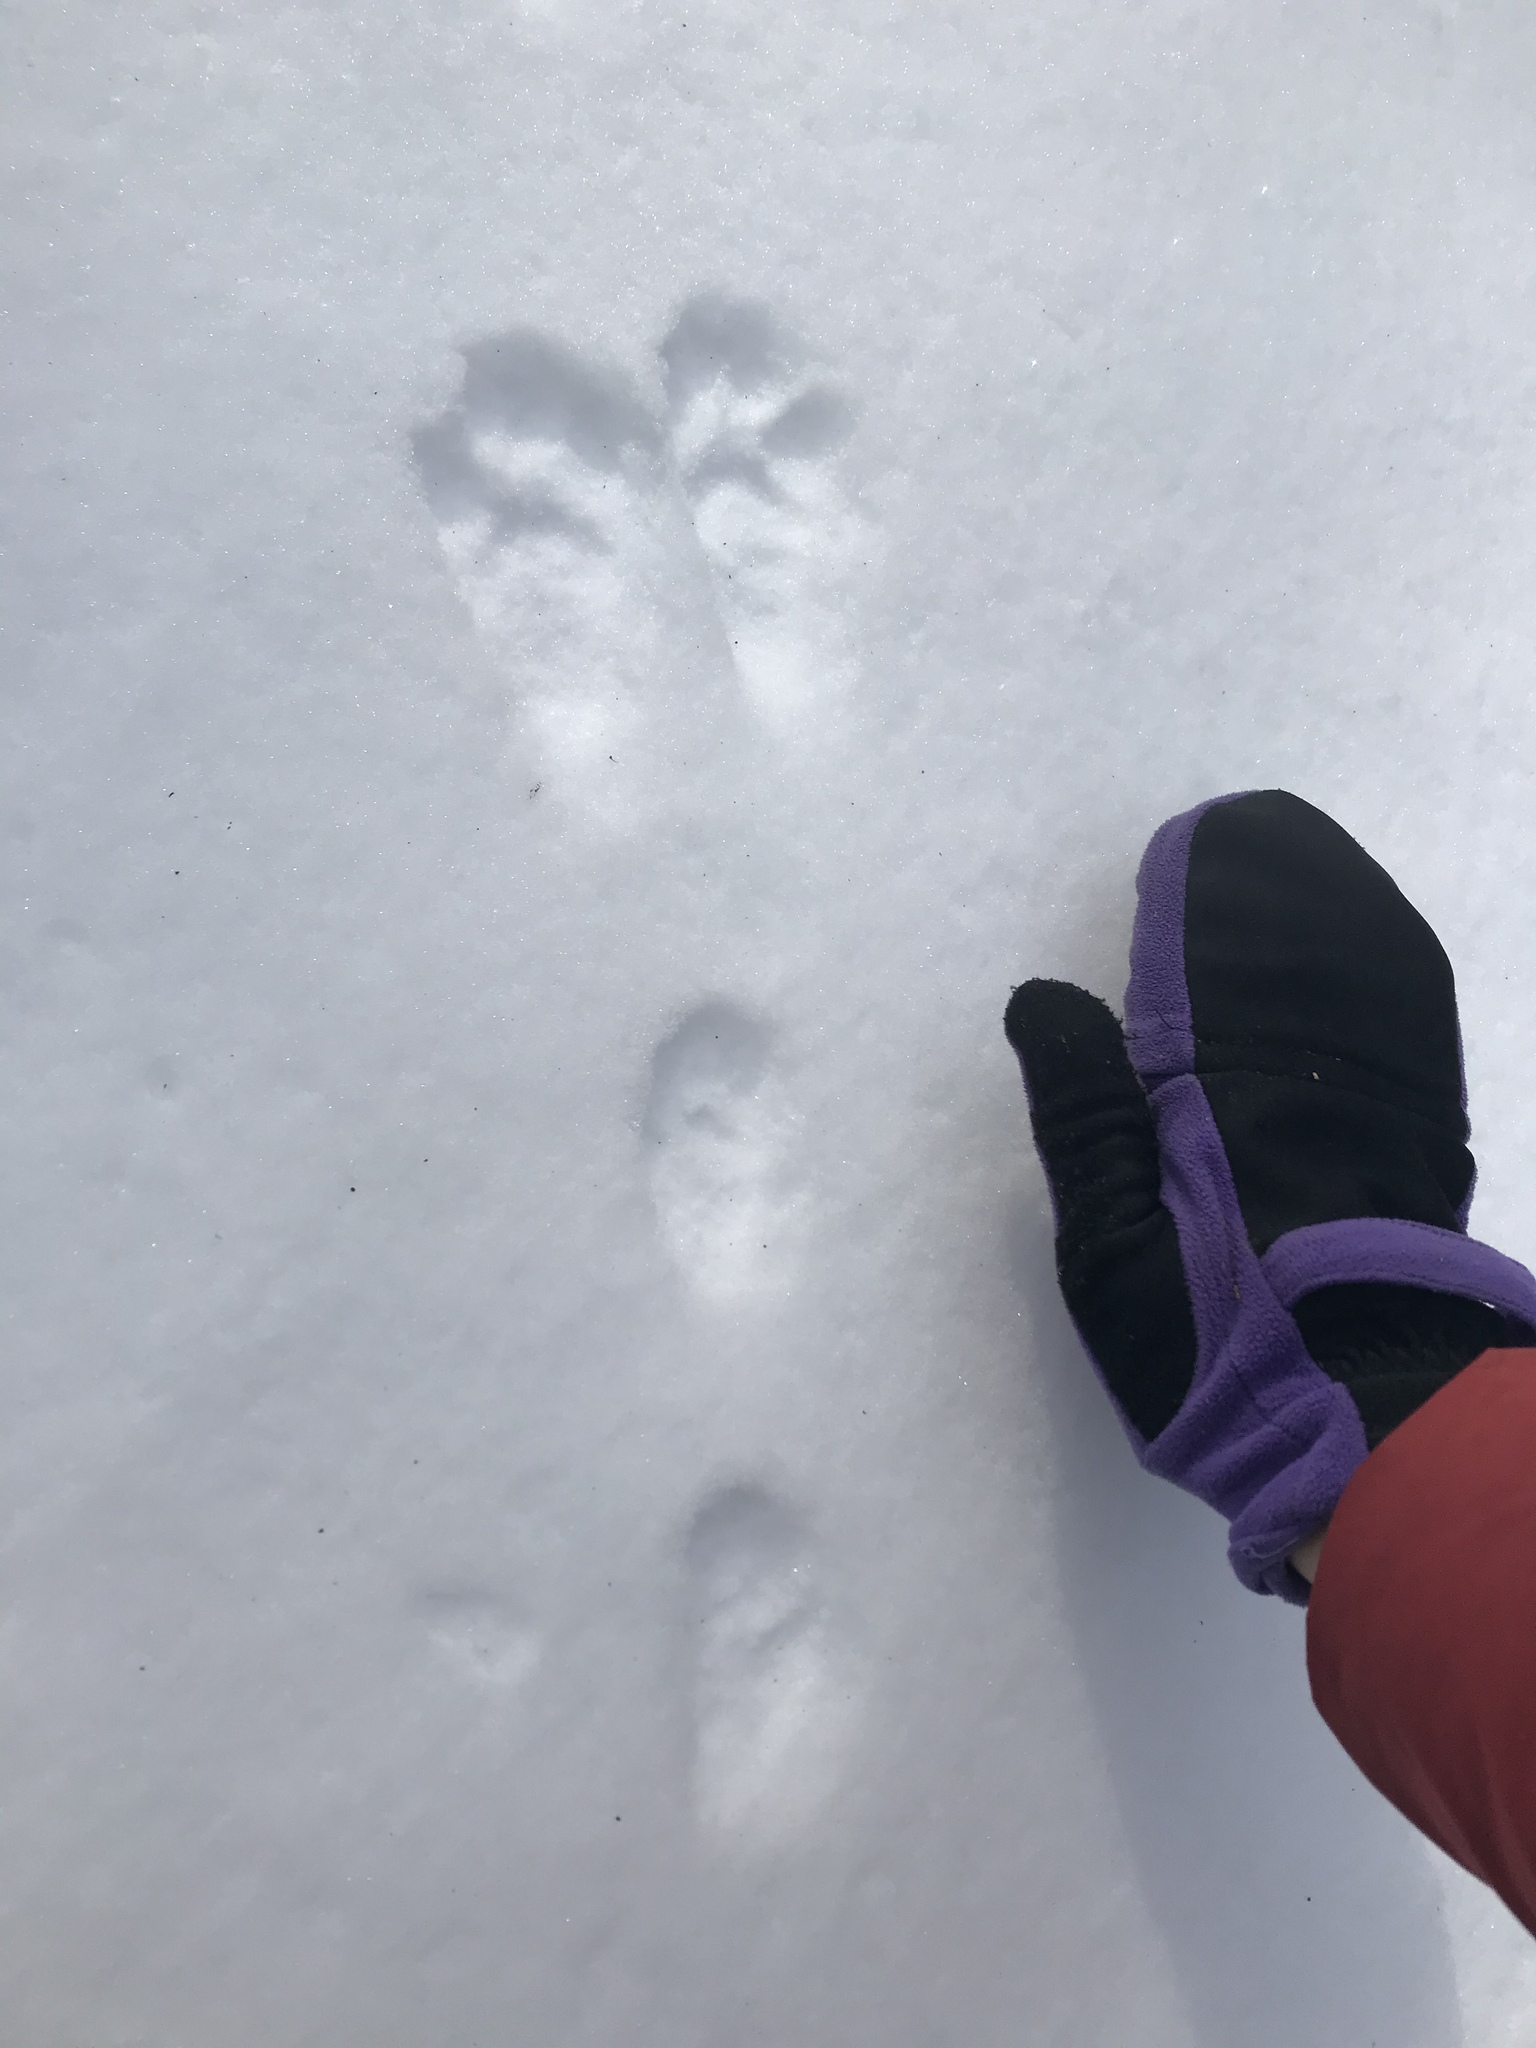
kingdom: Animalia
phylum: Chordata
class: Mammalia
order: Lagomorpha
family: Leporidae
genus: Lepus
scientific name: Lepus americanus
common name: Snowshoe hare
